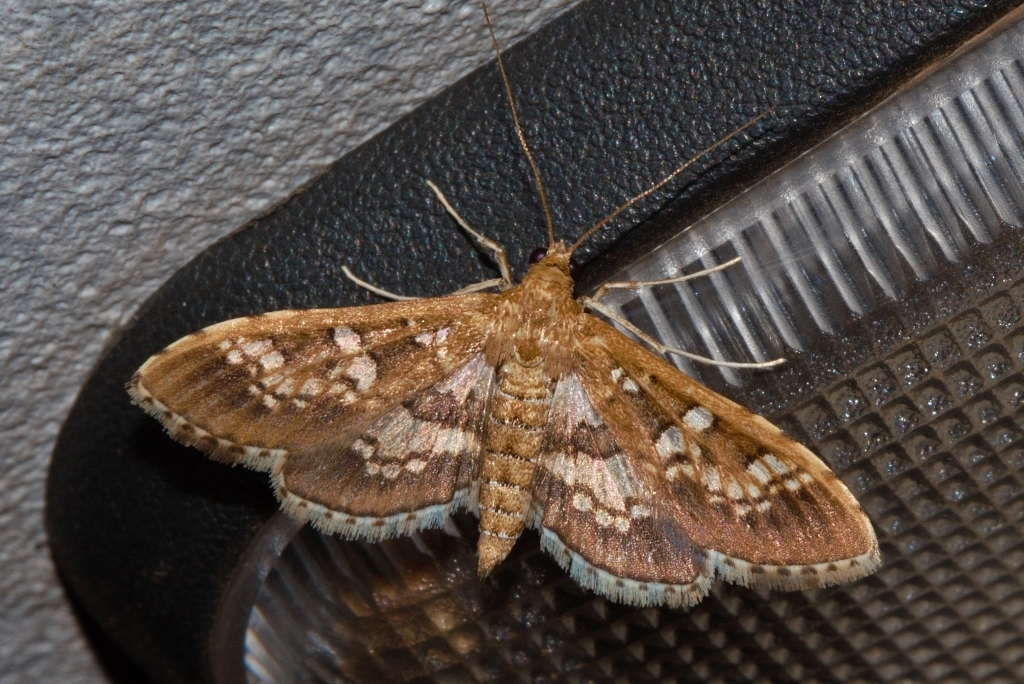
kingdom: Animalia
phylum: Arthropoda
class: Insecta
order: Lepidoptera
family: Crambidae
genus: Sameodes
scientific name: Sameodes cancellalis
